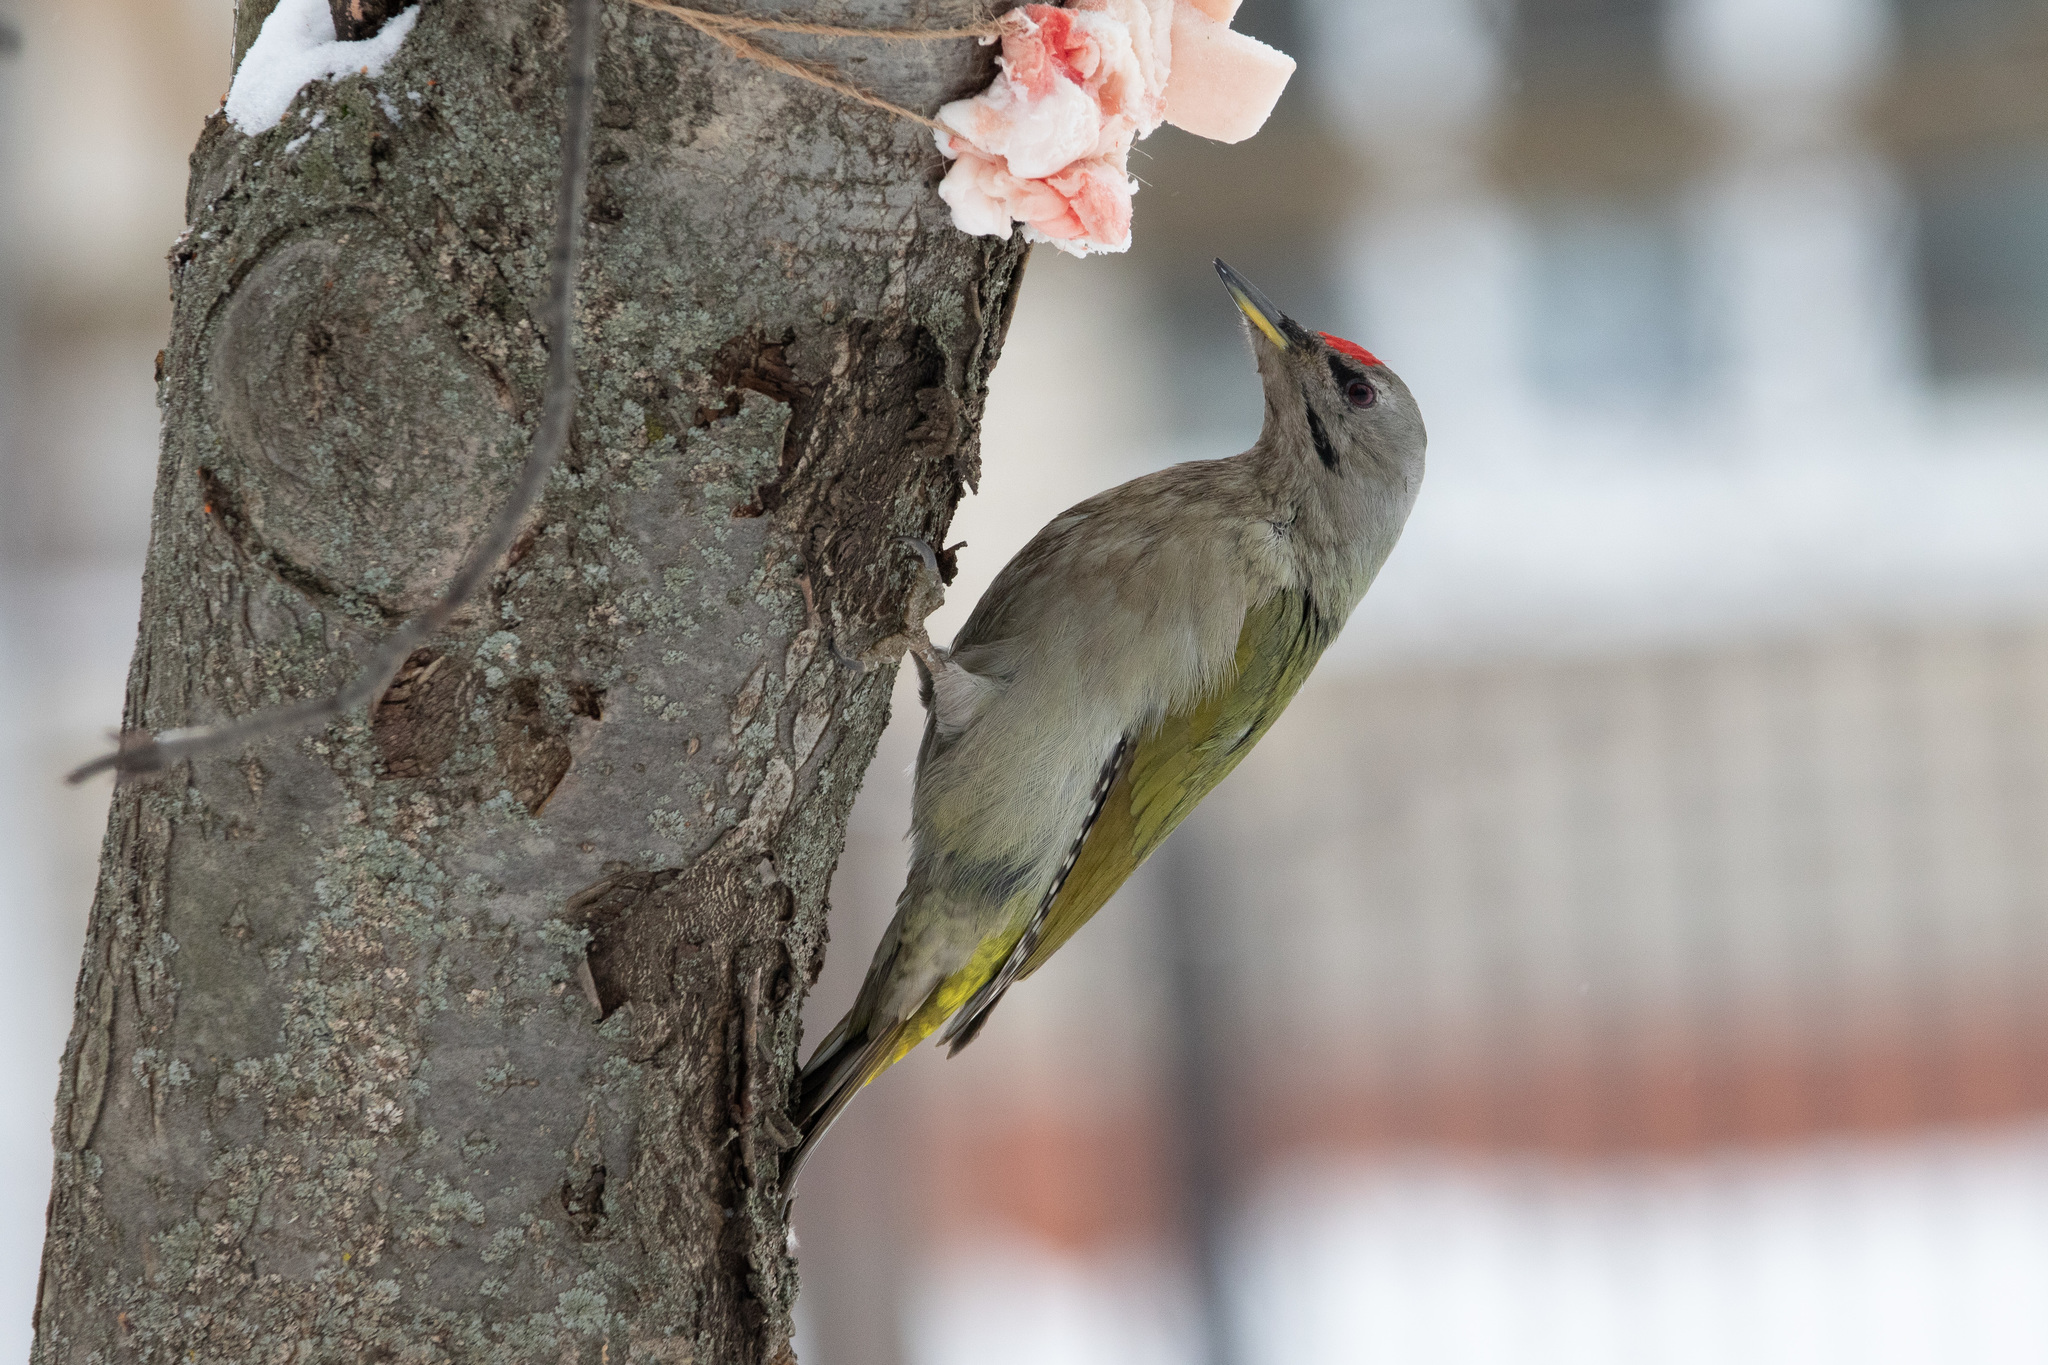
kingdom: Animalia
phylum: Chordata
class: Aves
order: Piciformes
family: Picidae
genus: Picus
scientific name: Picus canus
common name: Grey-headed woodpecker
